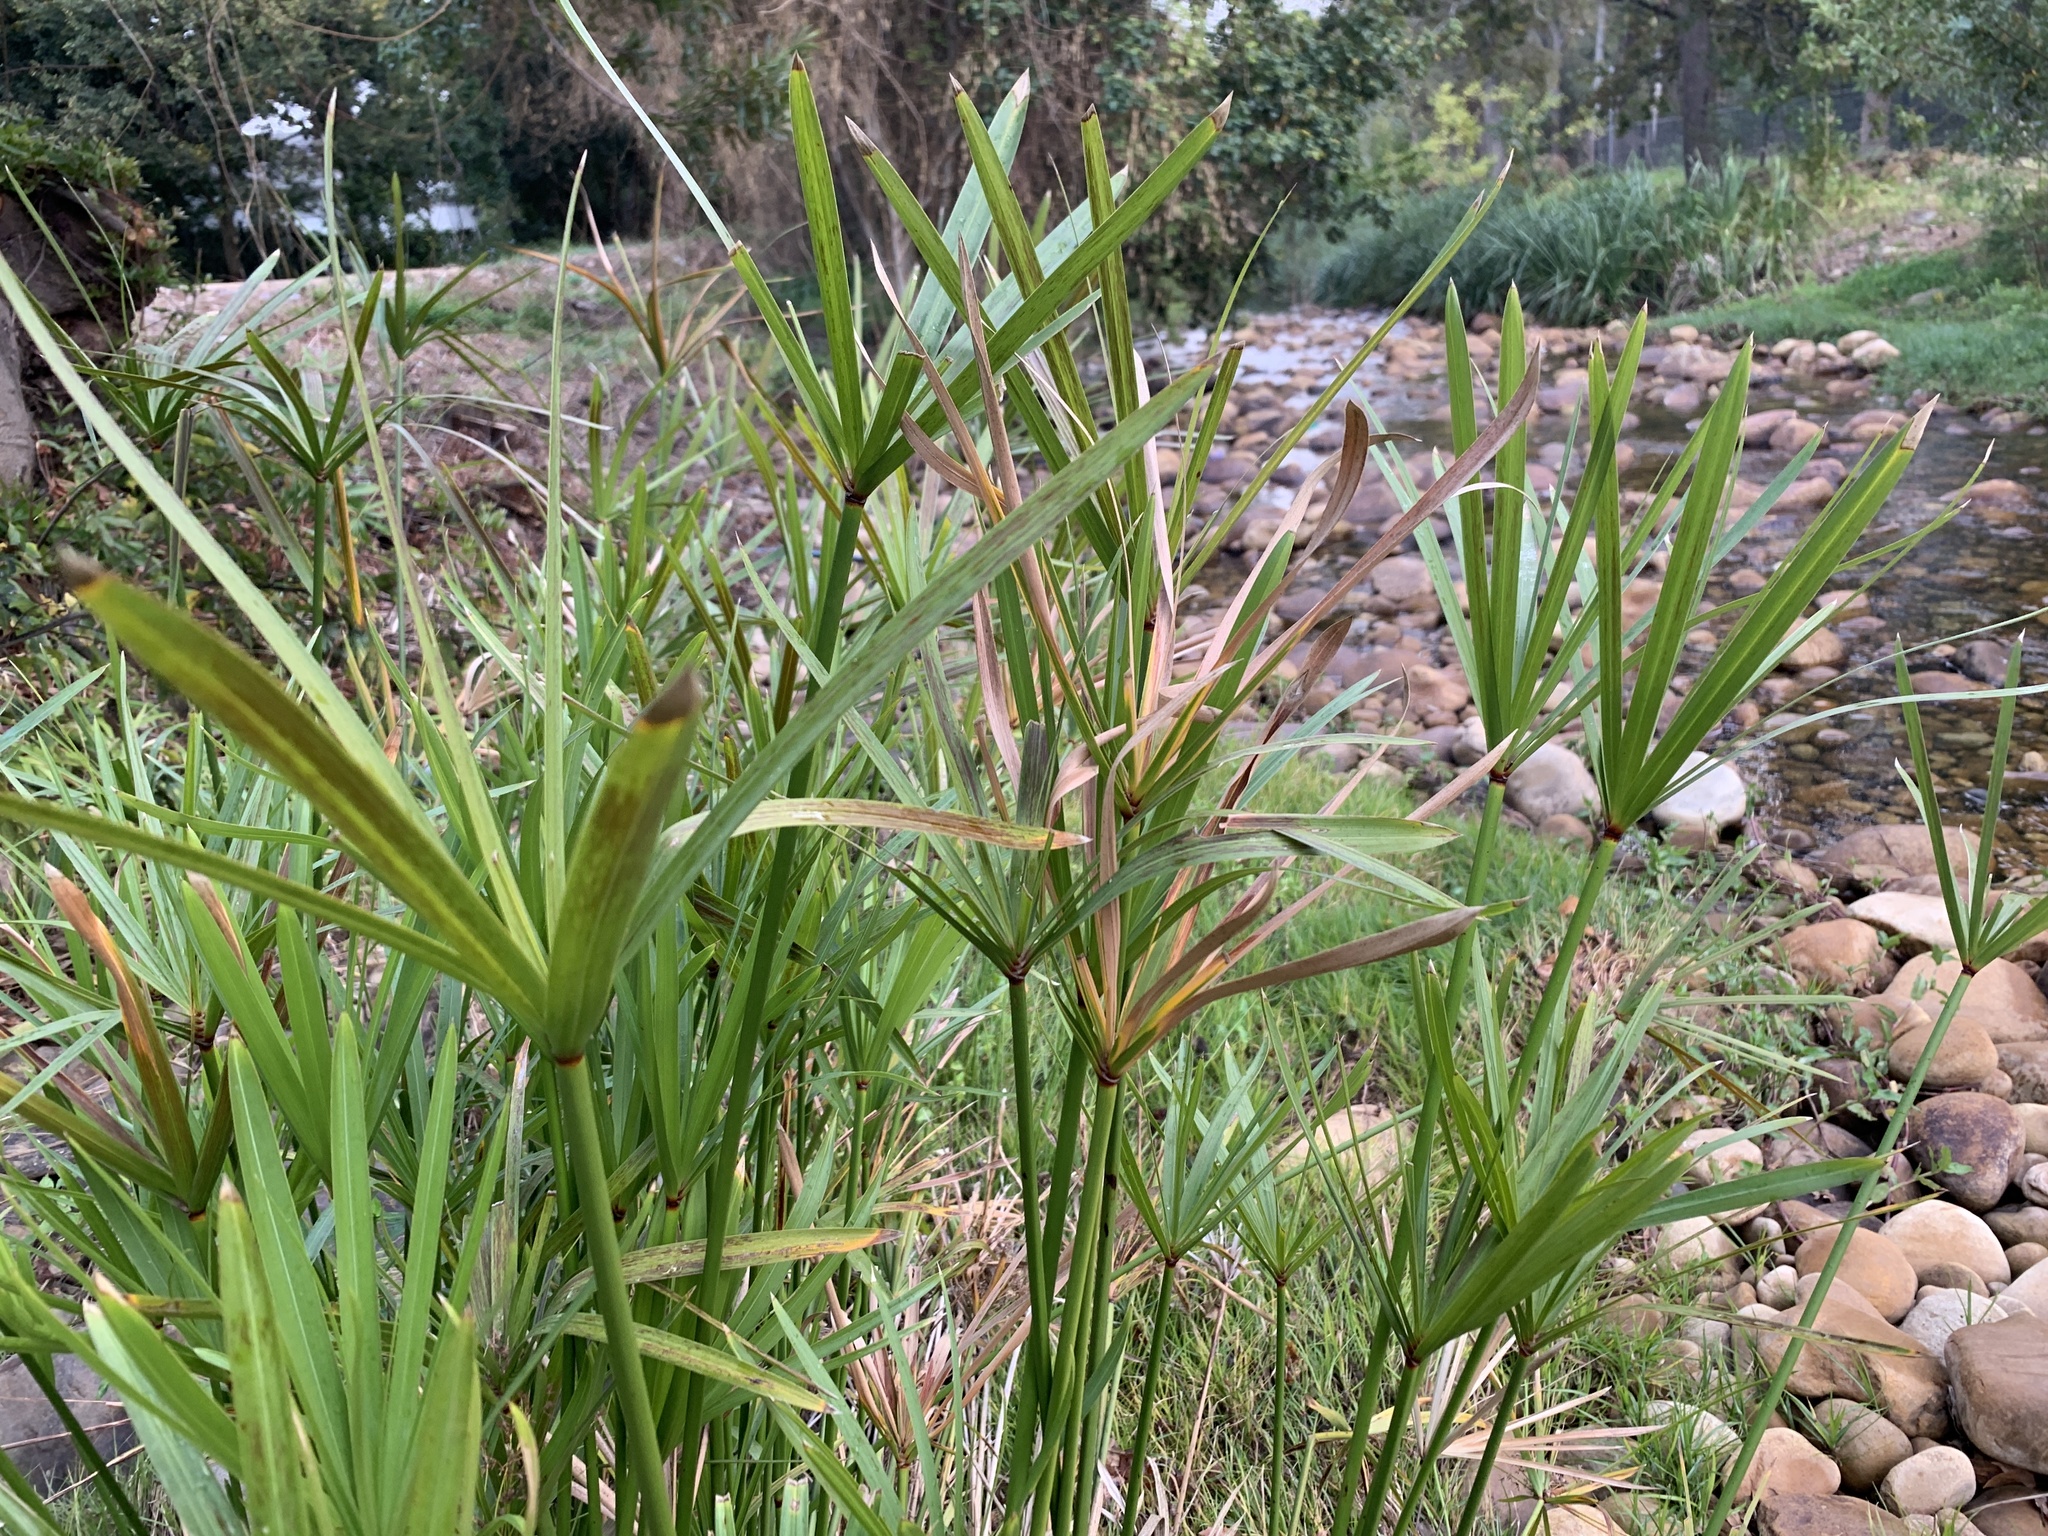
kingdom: Plantae
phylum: Tracheophyta
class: Liliopsida
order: Poales
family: Cyperaceae
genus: Cyperus
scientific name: Cyperus textilis
